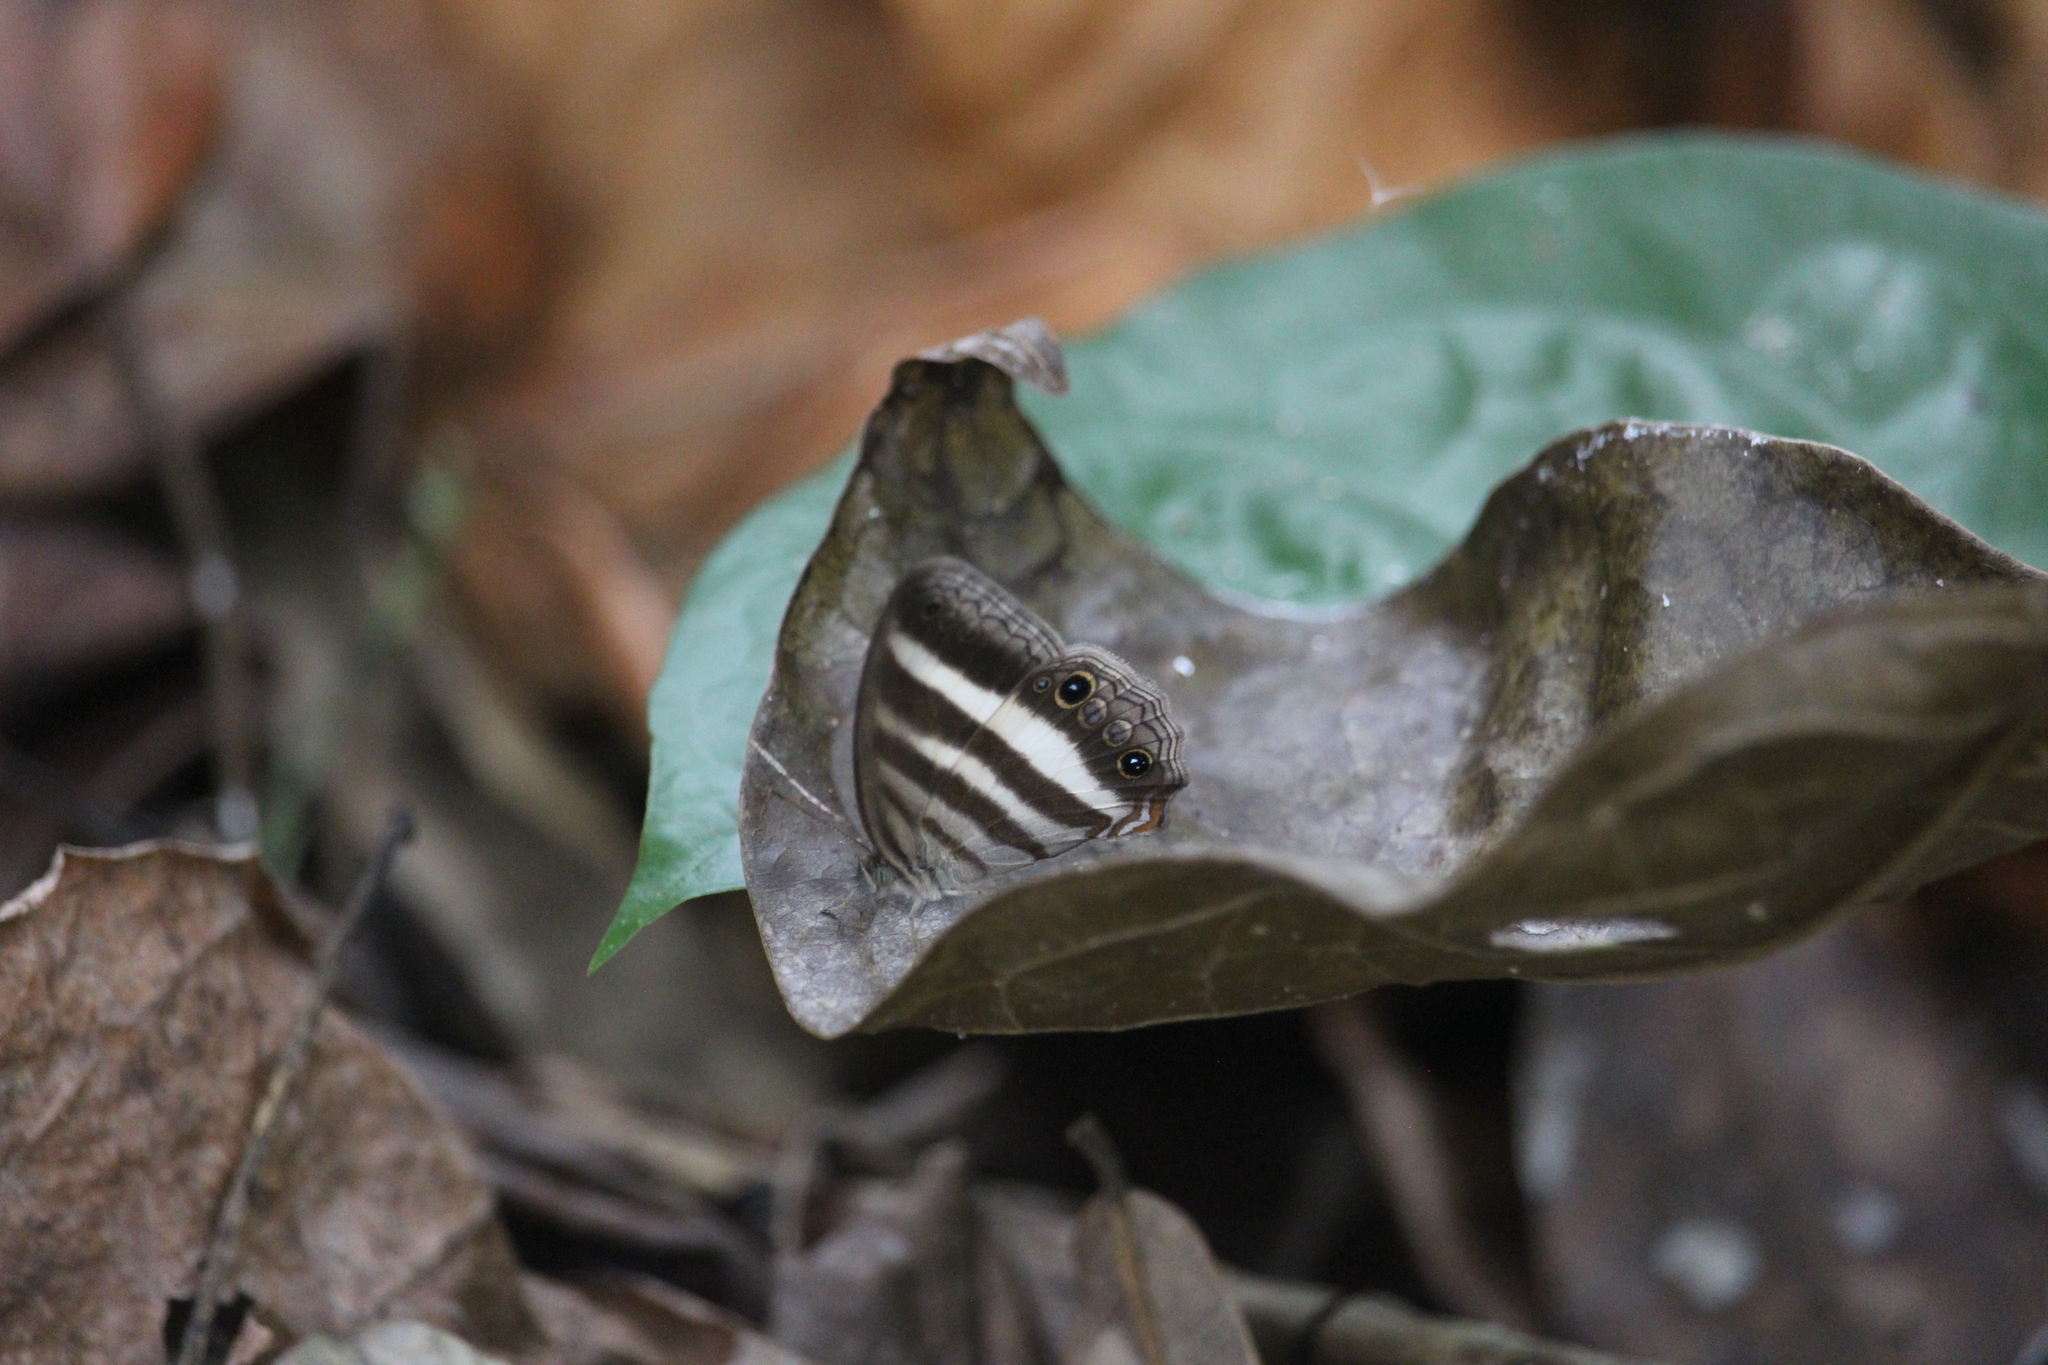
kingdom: Animalia
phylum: Arthropoda
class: Insecta
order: Lepidoptera
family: Nymphalidae
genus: Pareuptychia
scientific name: Pareuptychia hesione
